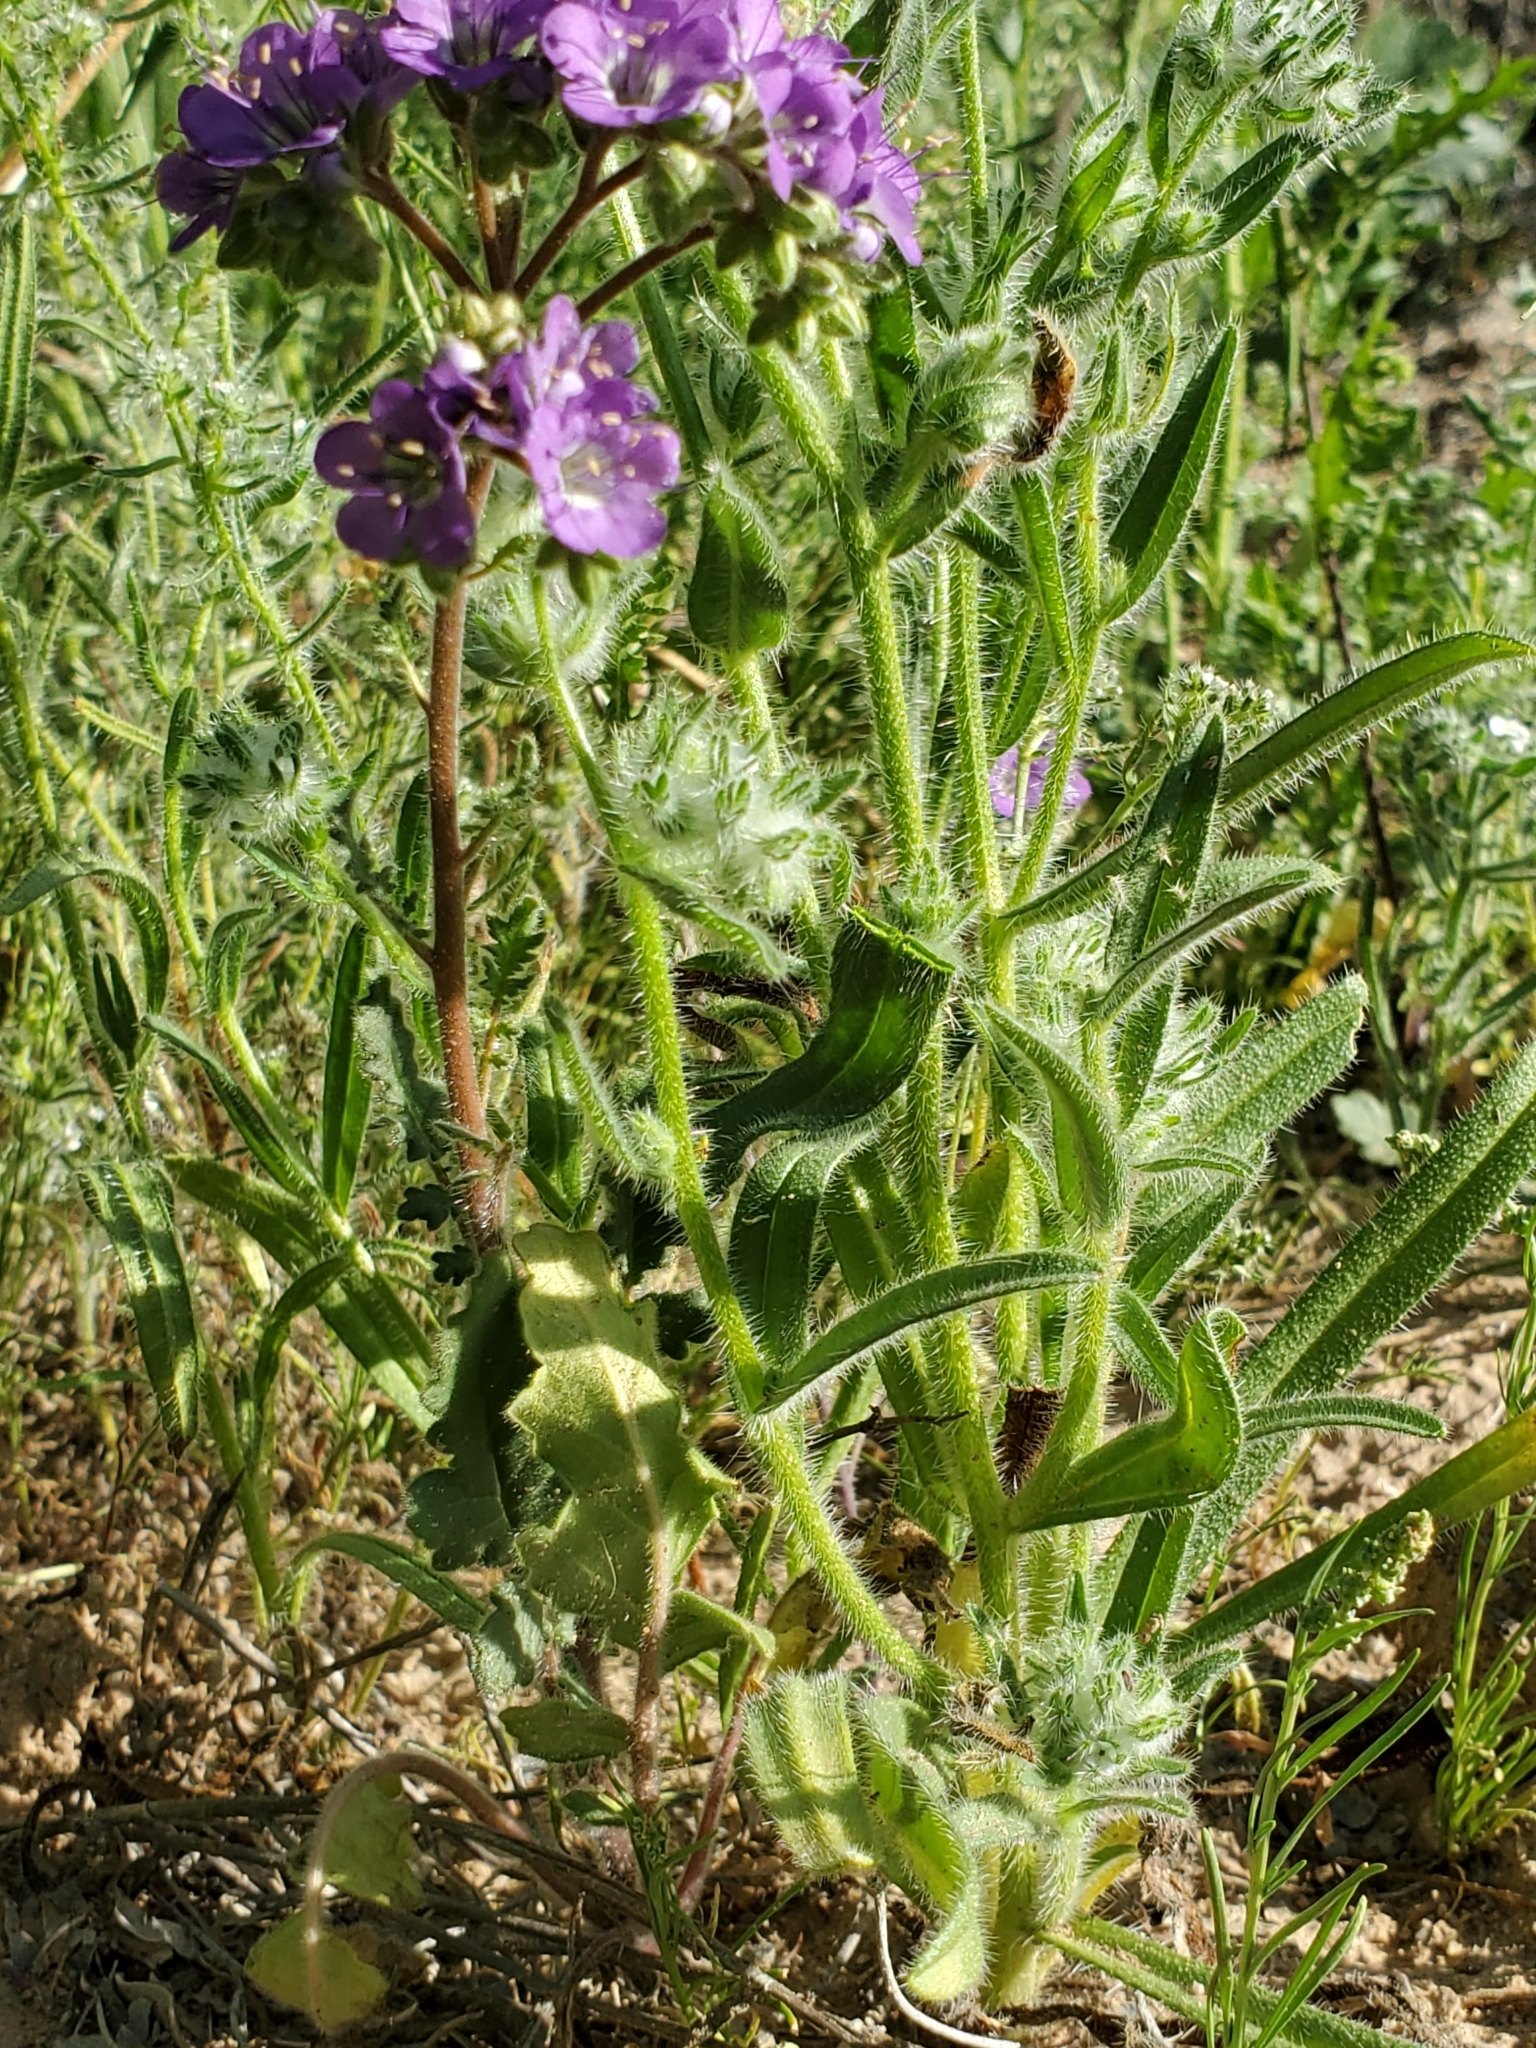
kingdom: Plantae
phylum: Tracheophyta
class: Magnoliopsida
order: Boraginales
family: Hydrophyllaceae
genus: Phacelia
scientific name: Phacelia crenulata
